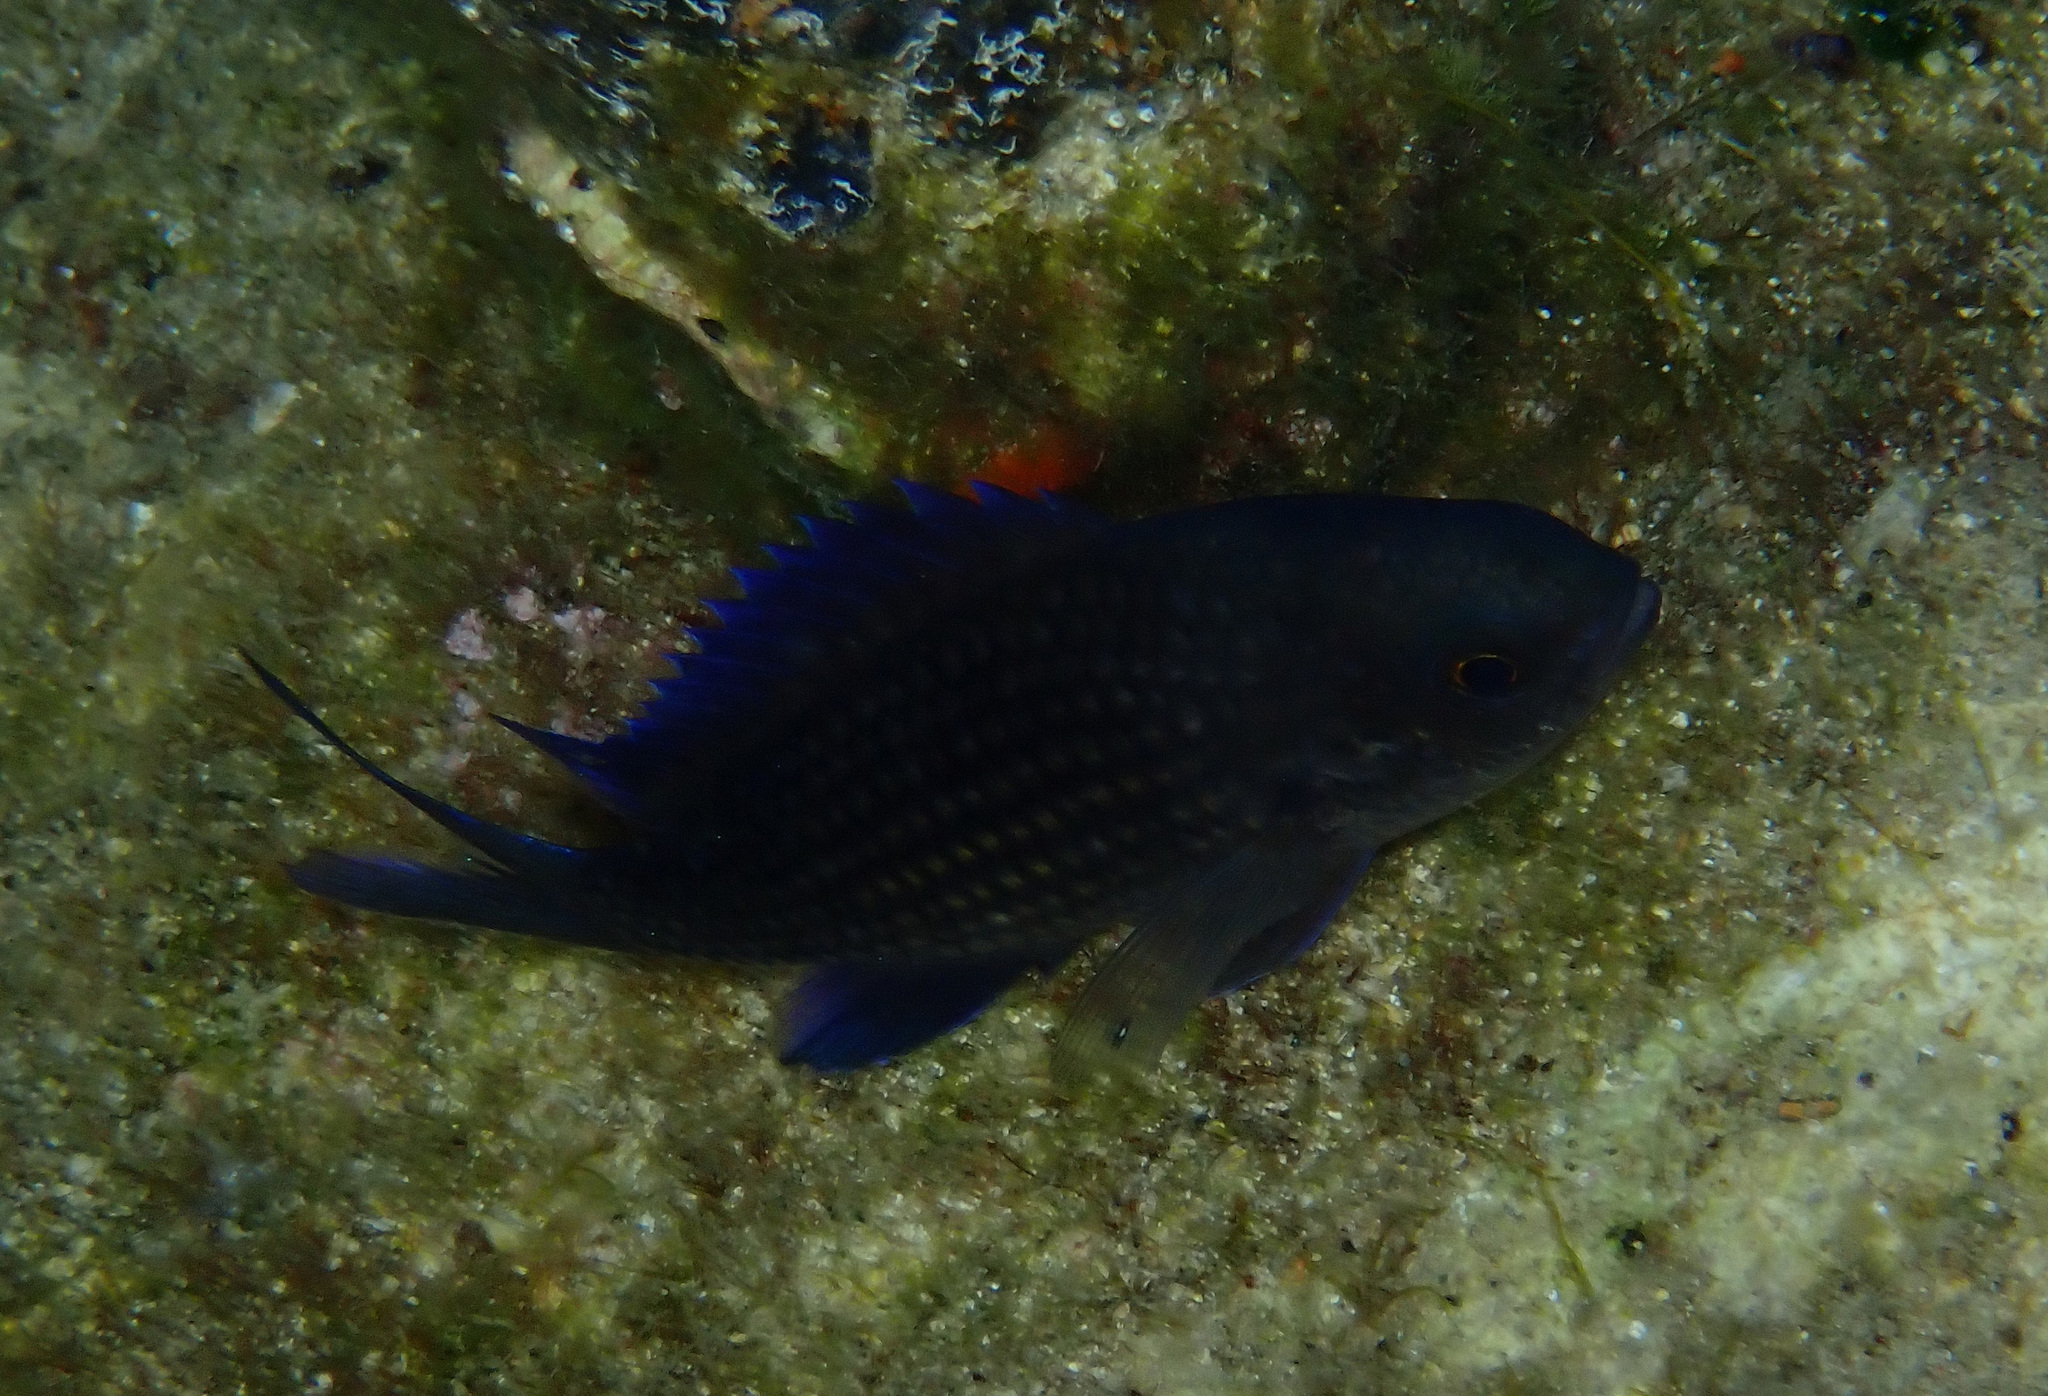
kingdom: Animalia
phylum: Chordata
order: Perciformes
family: Pomacentridae
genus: Chromis
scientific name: Chromis chromis
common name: Damselfish
